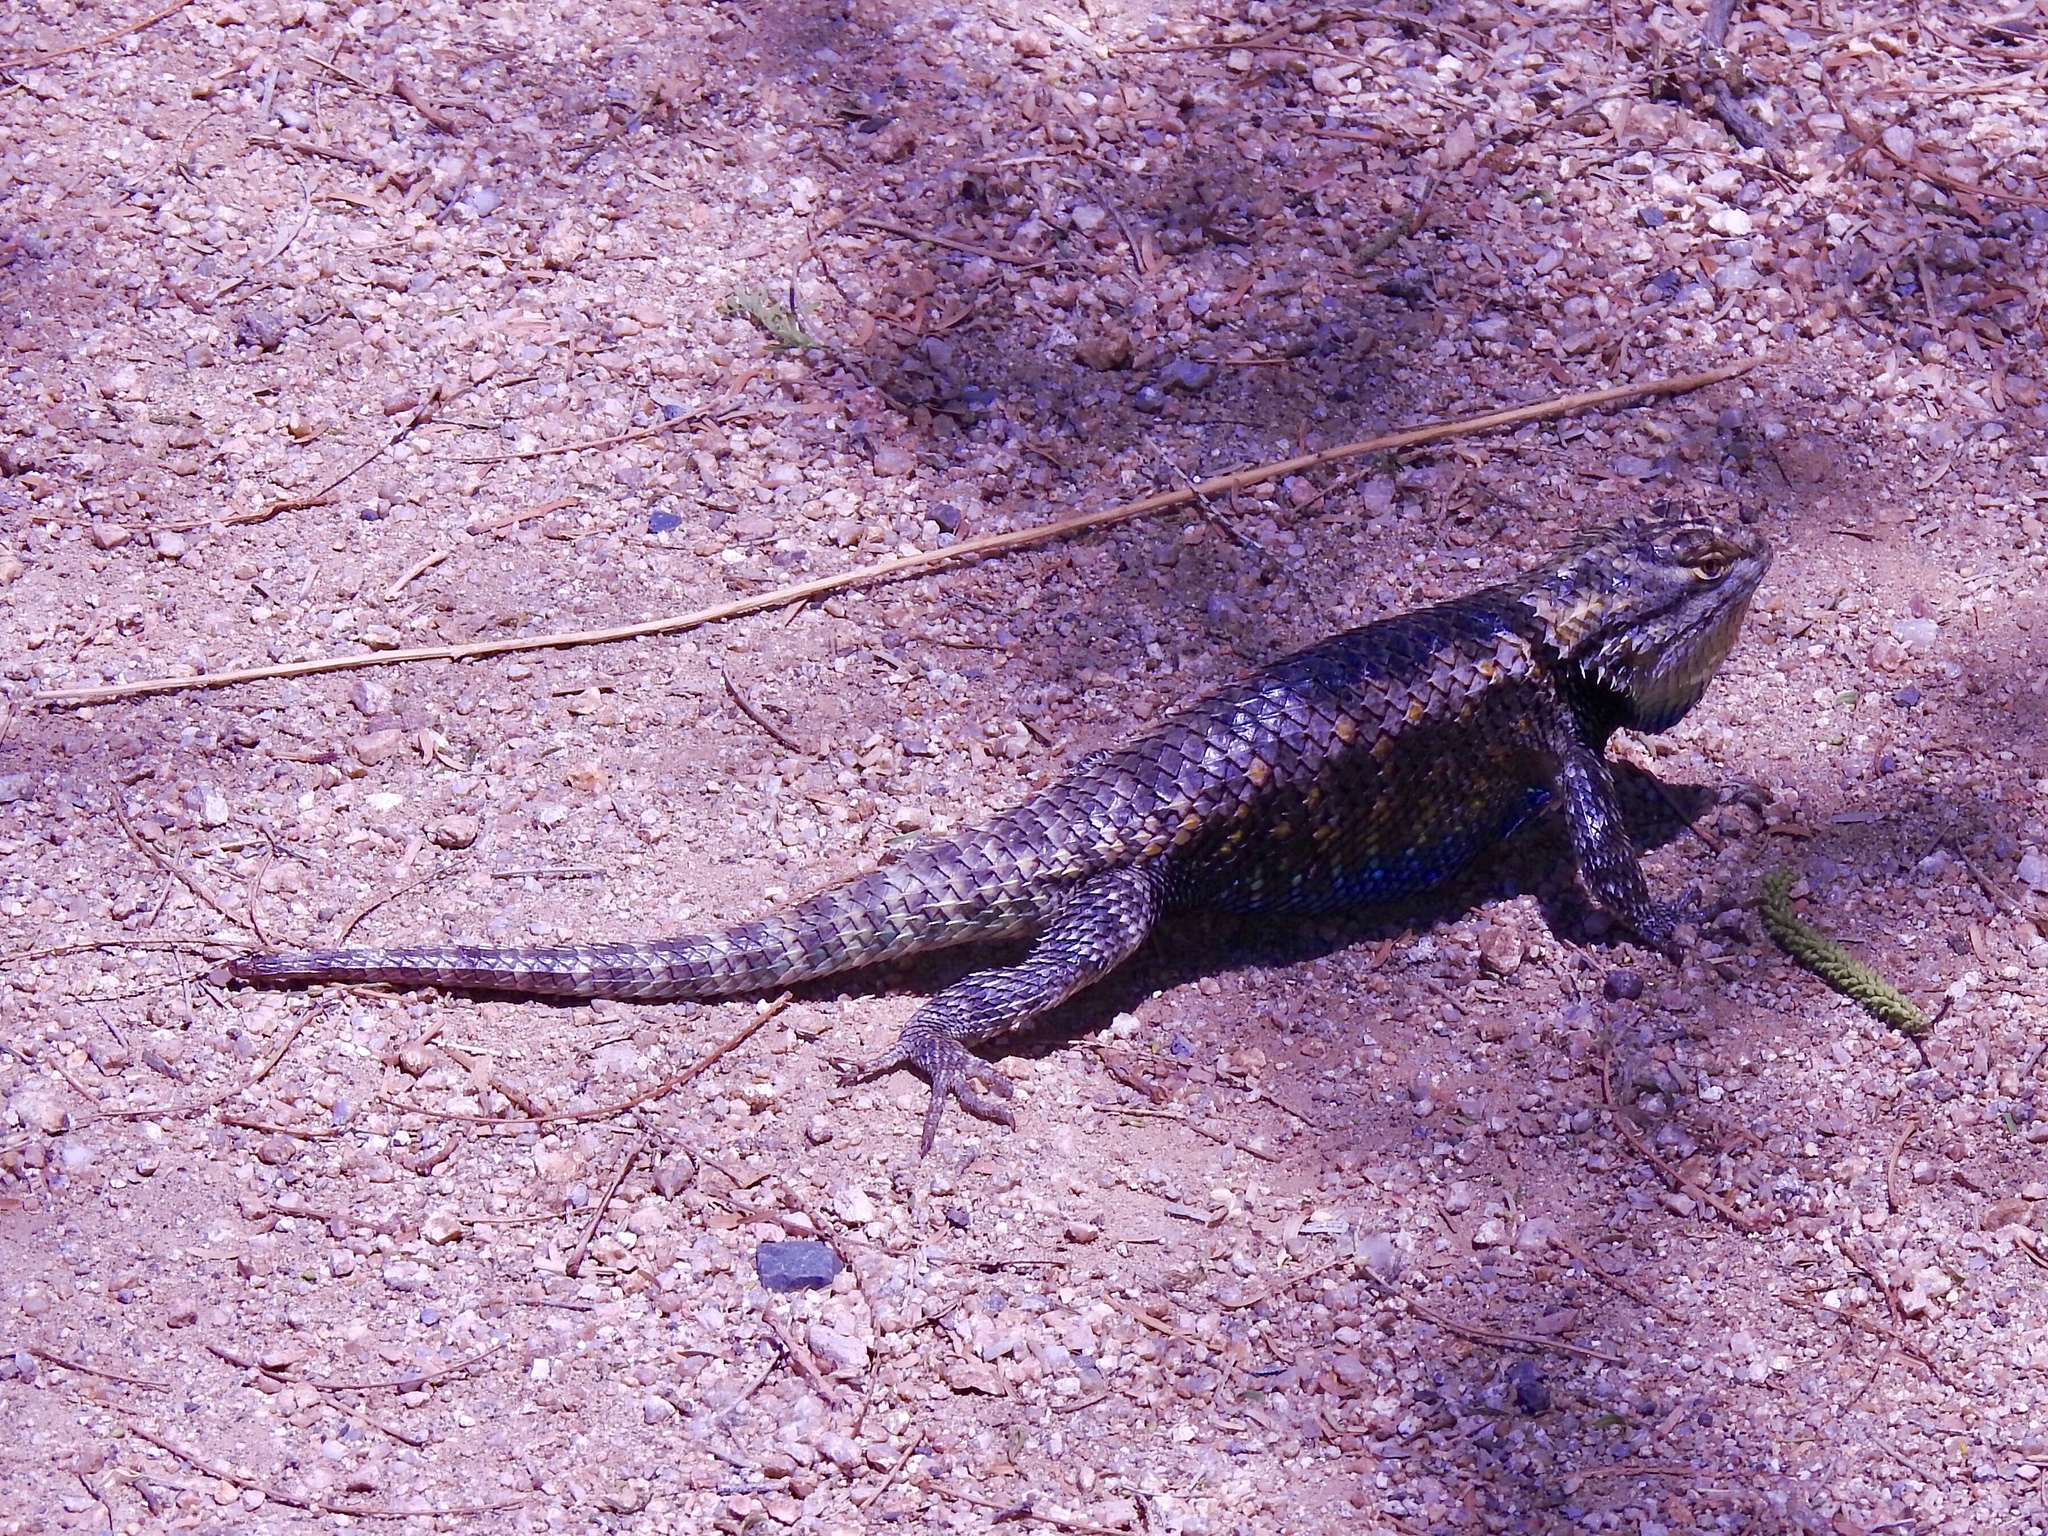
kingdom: Animalia
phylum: Chordata
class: Squamata
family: Phrynosomatidae
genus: Sceloporus
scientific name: Sceloporus magister
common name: Desert spiny lizard
